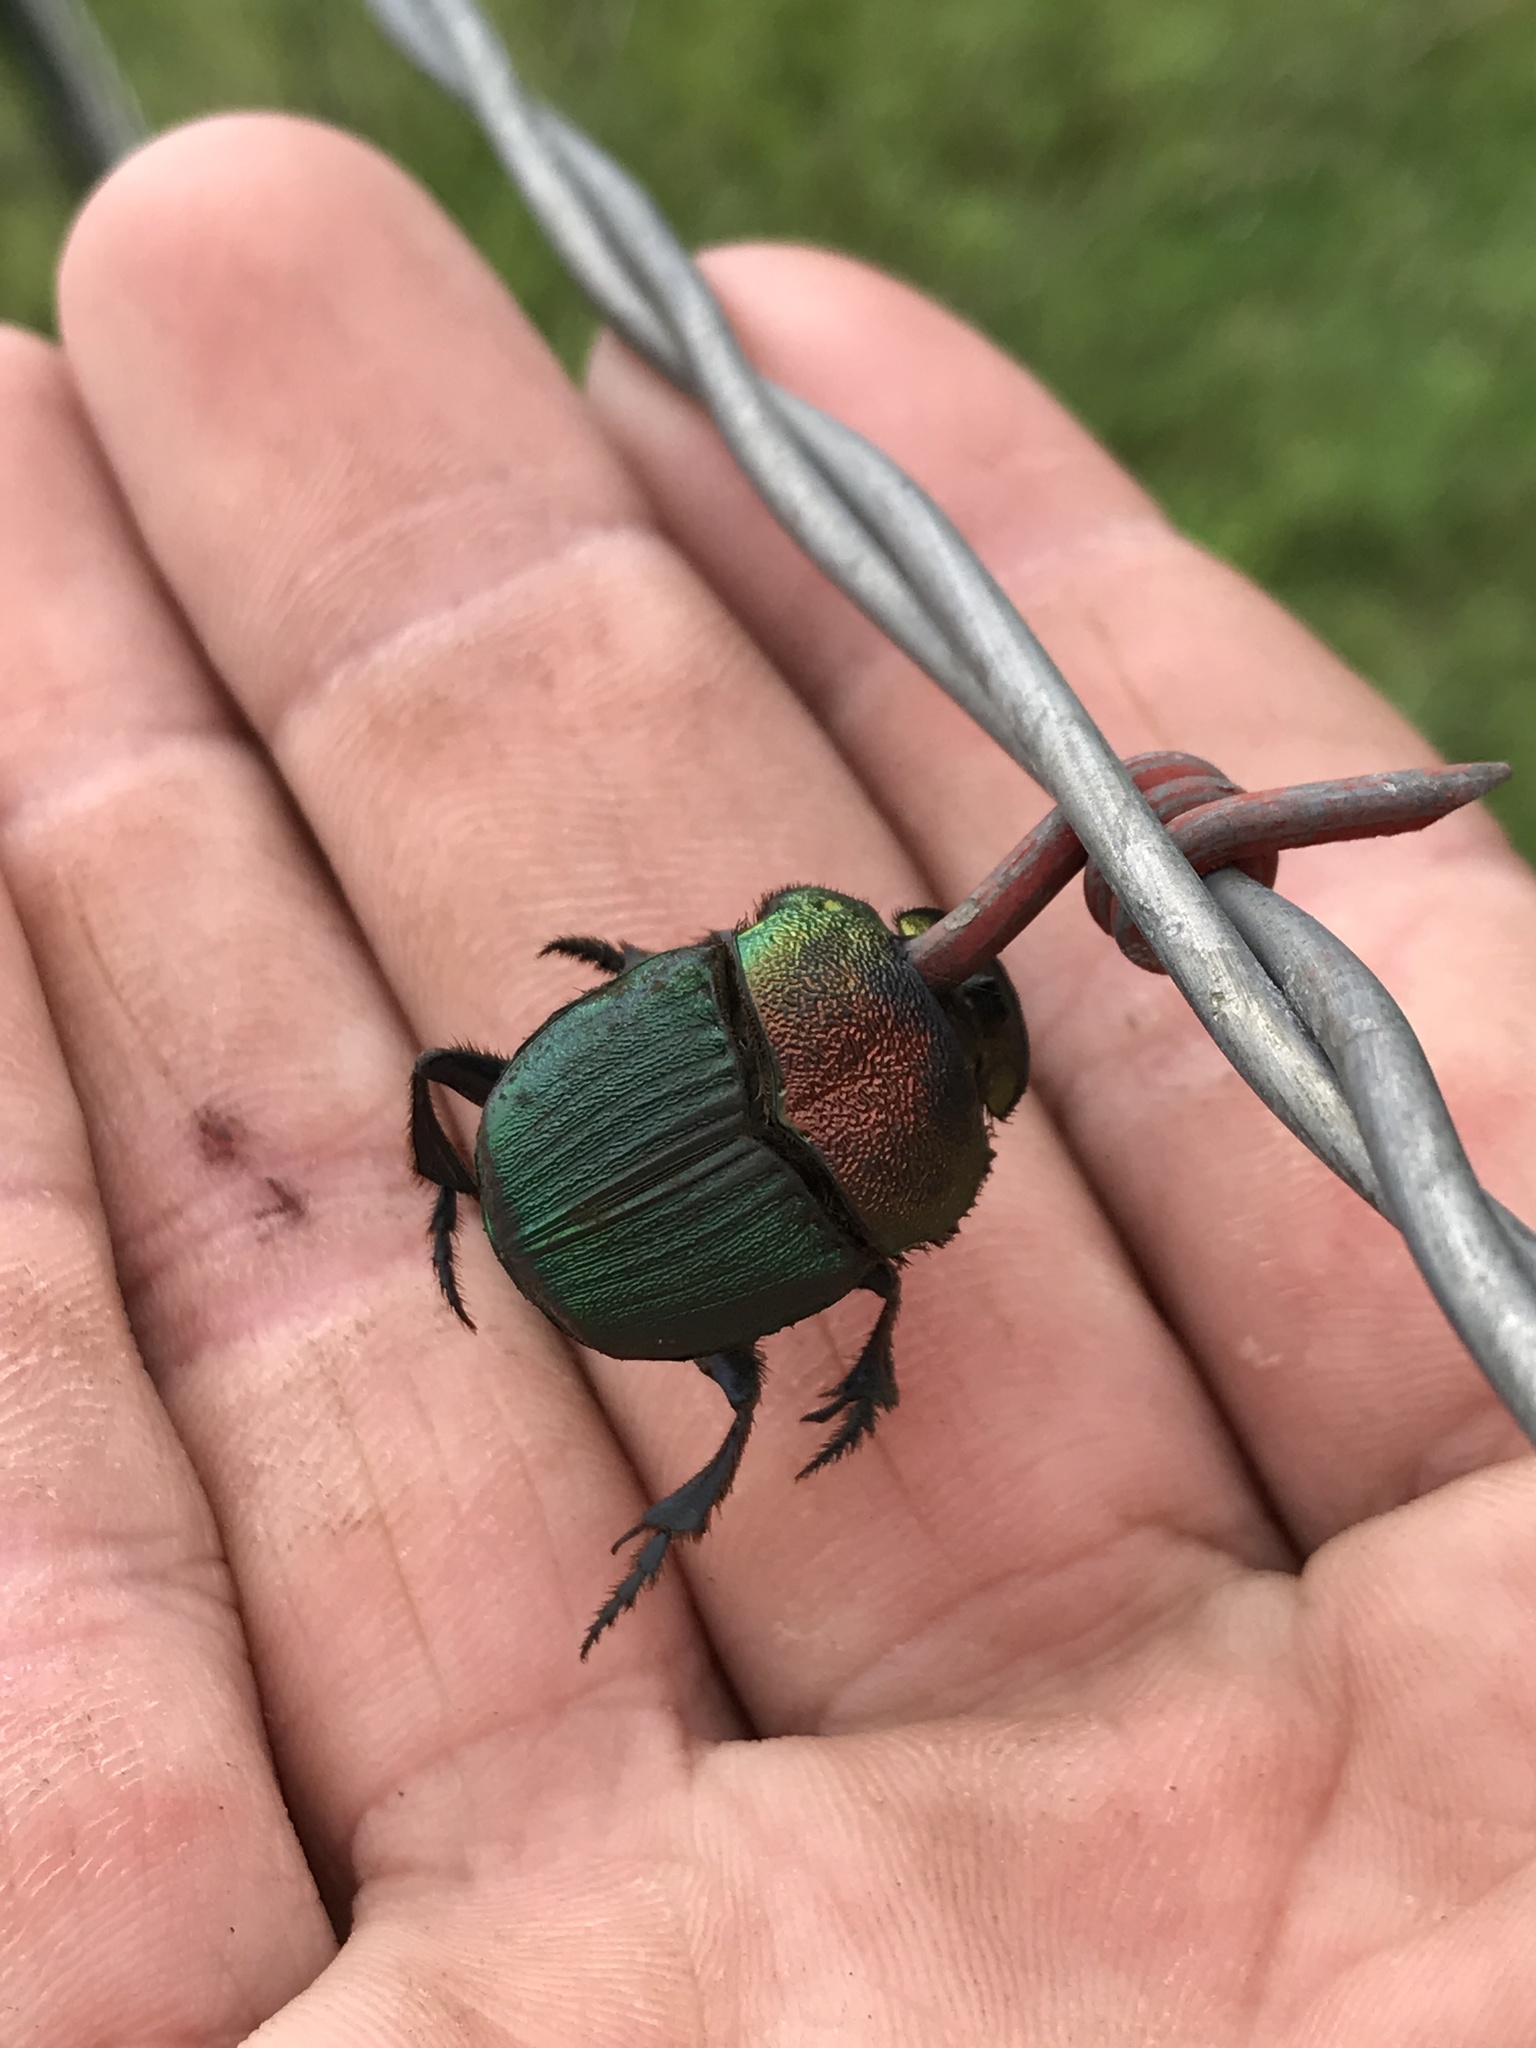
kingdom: Animalia
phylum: Arthropoda
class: Insecta
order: Coleoptera
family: Scarabaeidae
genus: Phanaeus
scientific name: Phanaeus vindex
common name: Rainbow scarab
